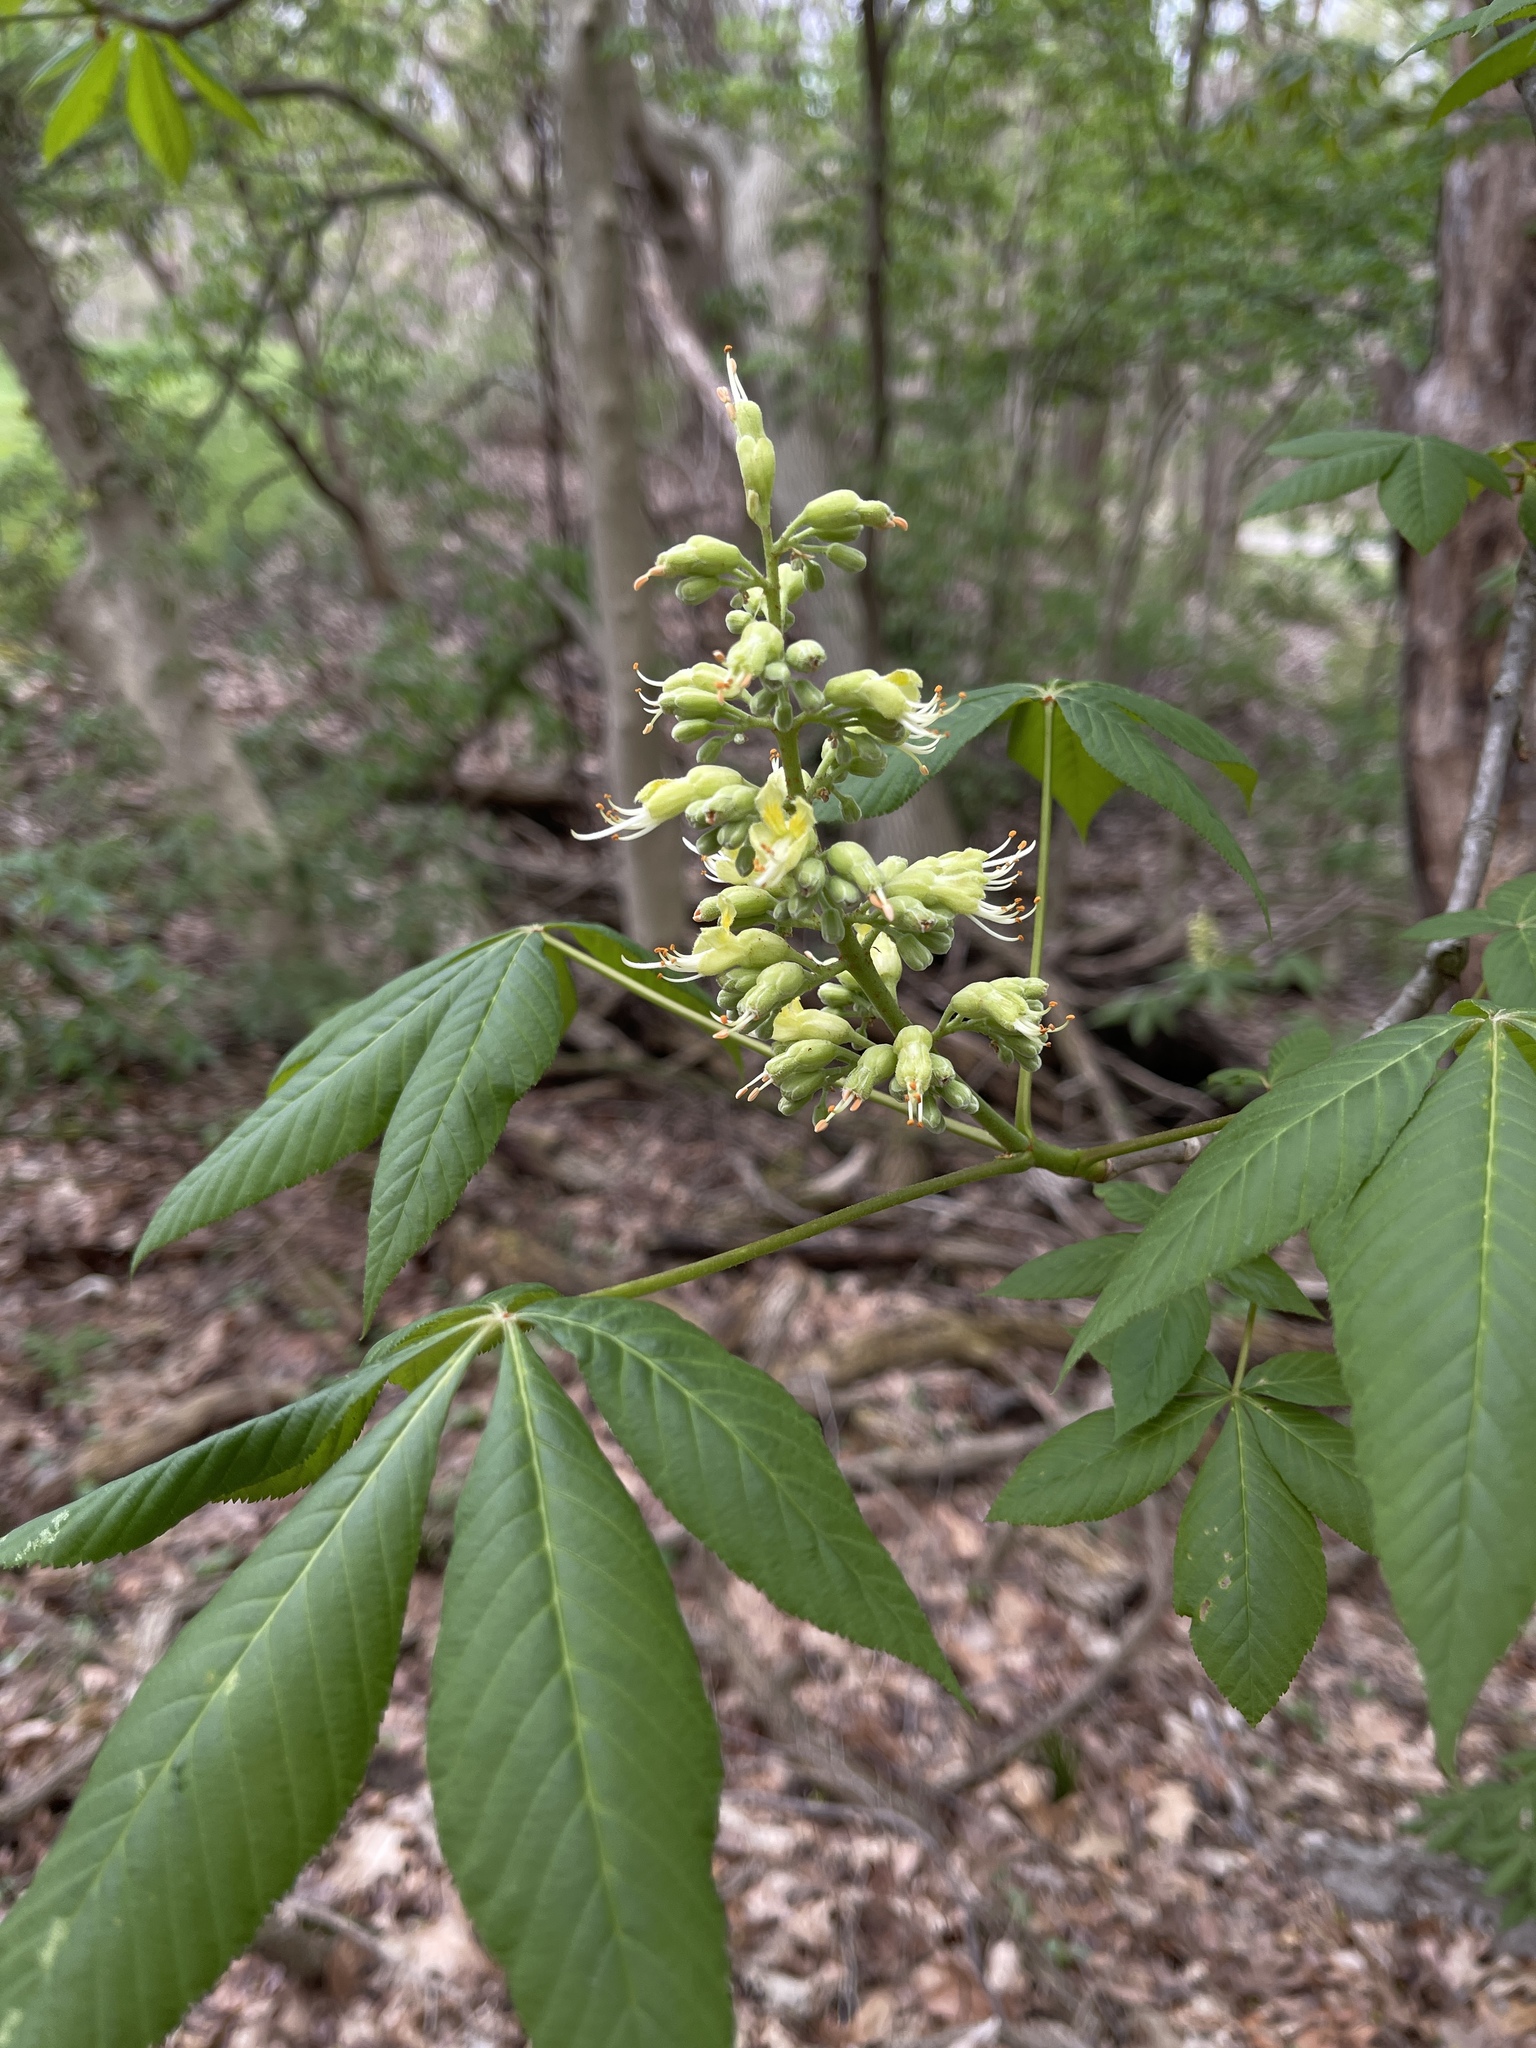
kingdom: Plantae
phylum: Tracheophyta
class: Magnoliopsida
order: Sapindales
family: Sapindaceae
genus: Aesculus
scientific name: Aesculus glabra
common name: Ohio buckeye
